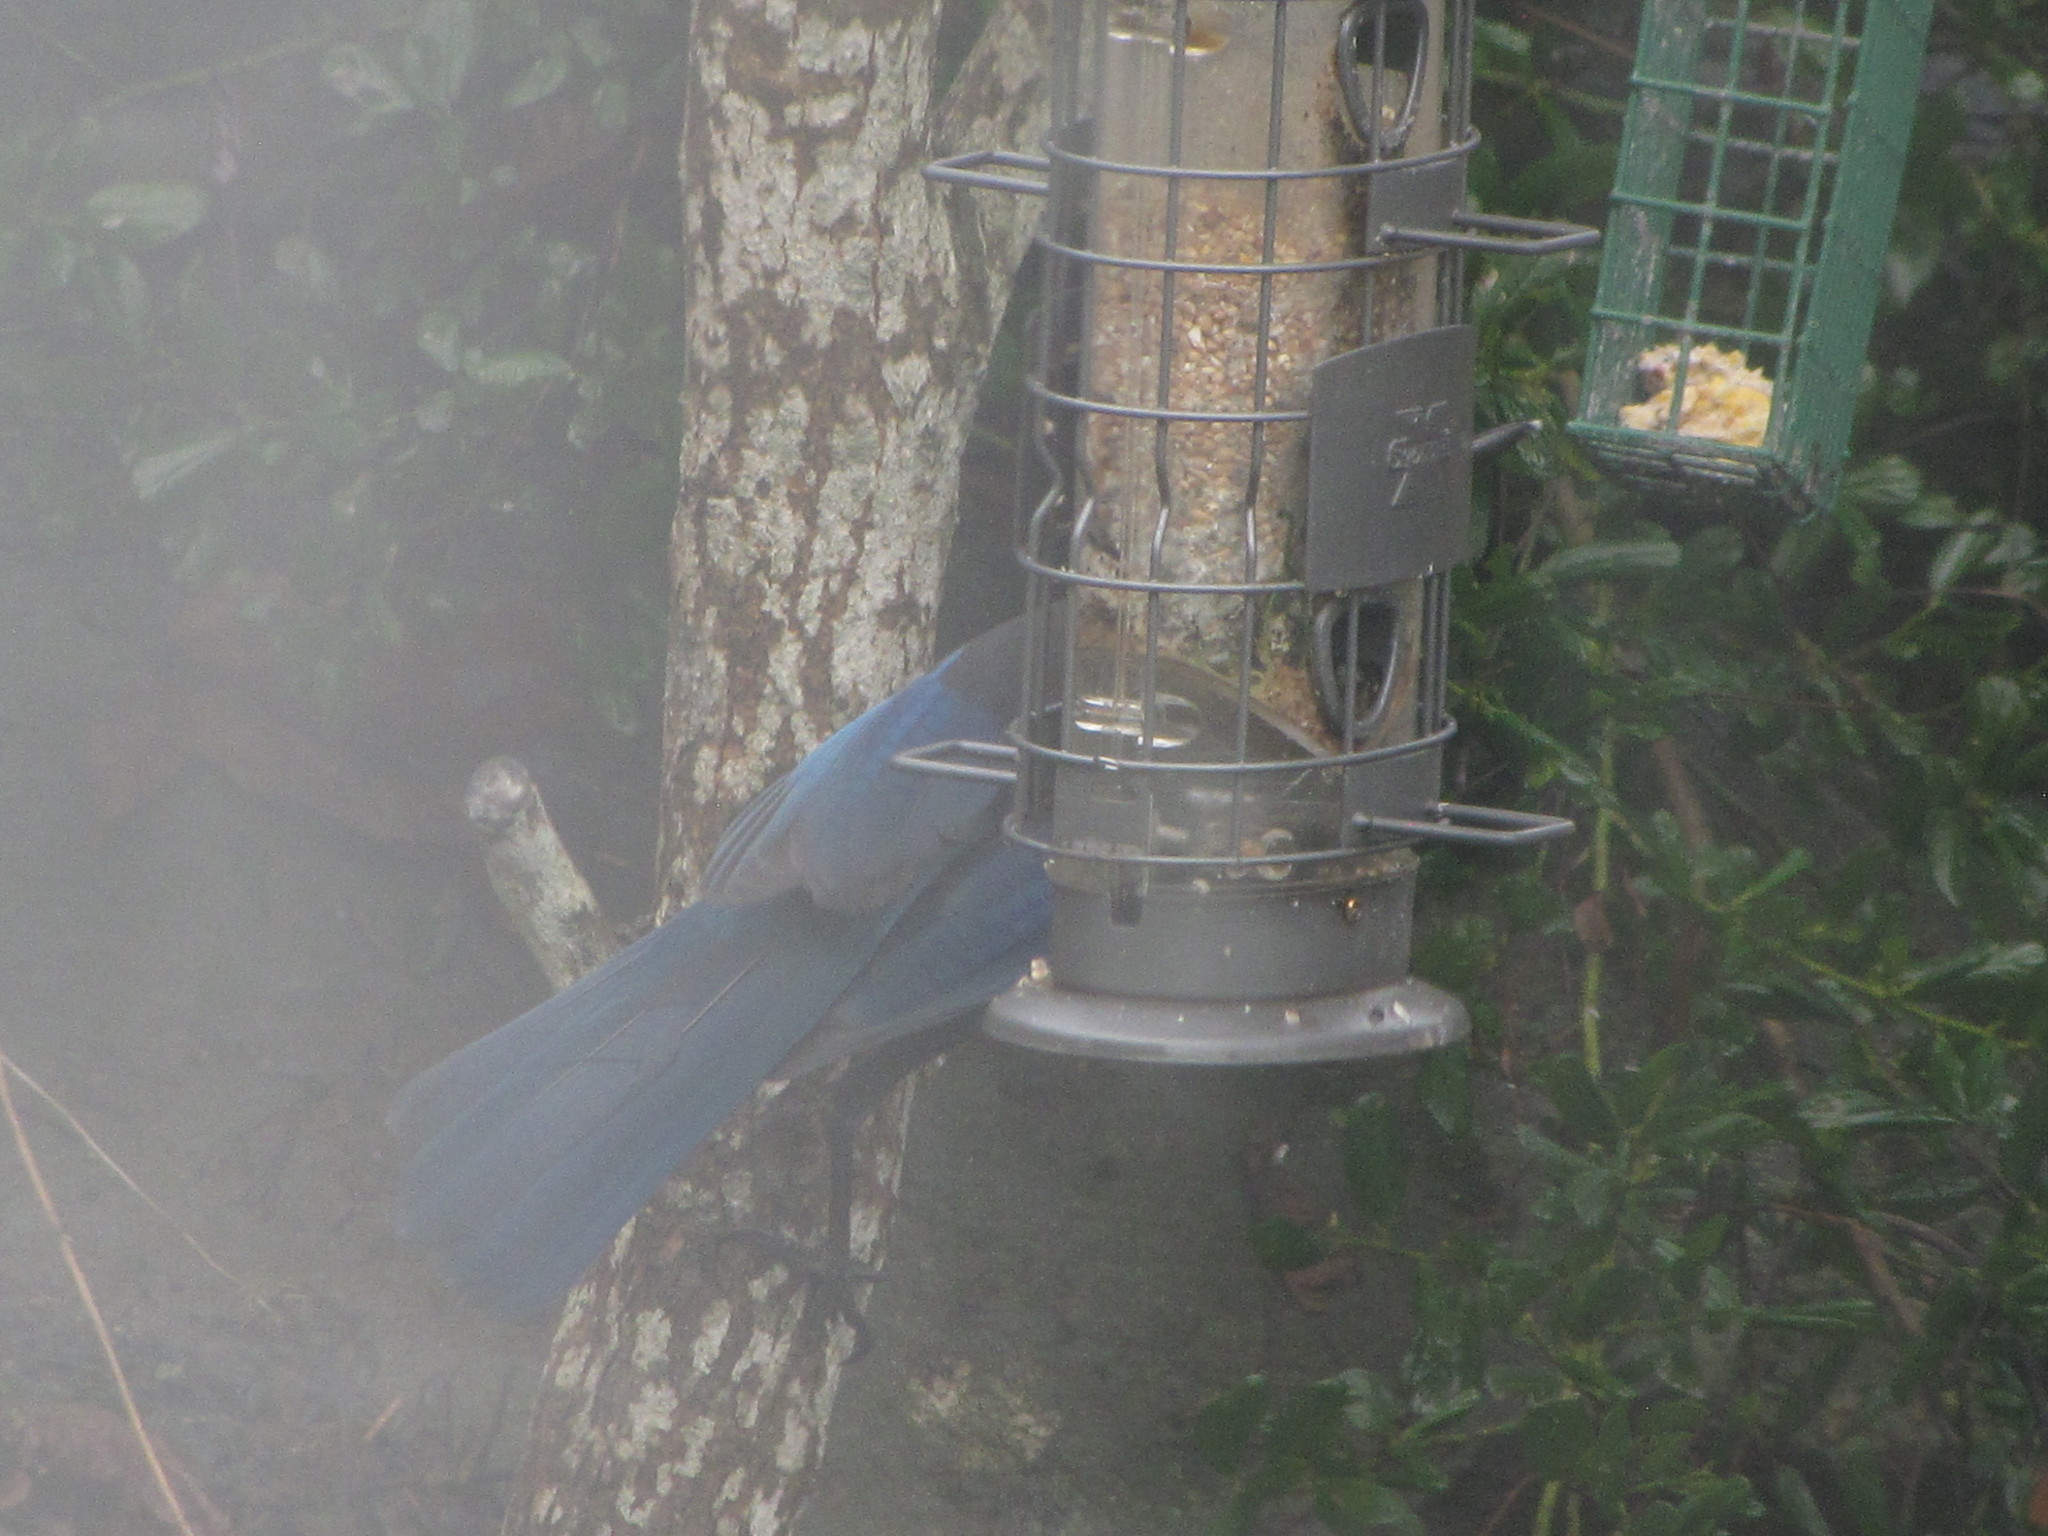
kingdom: Animalia
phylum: Chordata
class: Aves
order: Passeriformes
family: Corvidae
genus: Cyanocitta
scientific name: Cyanocitta stelleri
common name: Steller's jay
